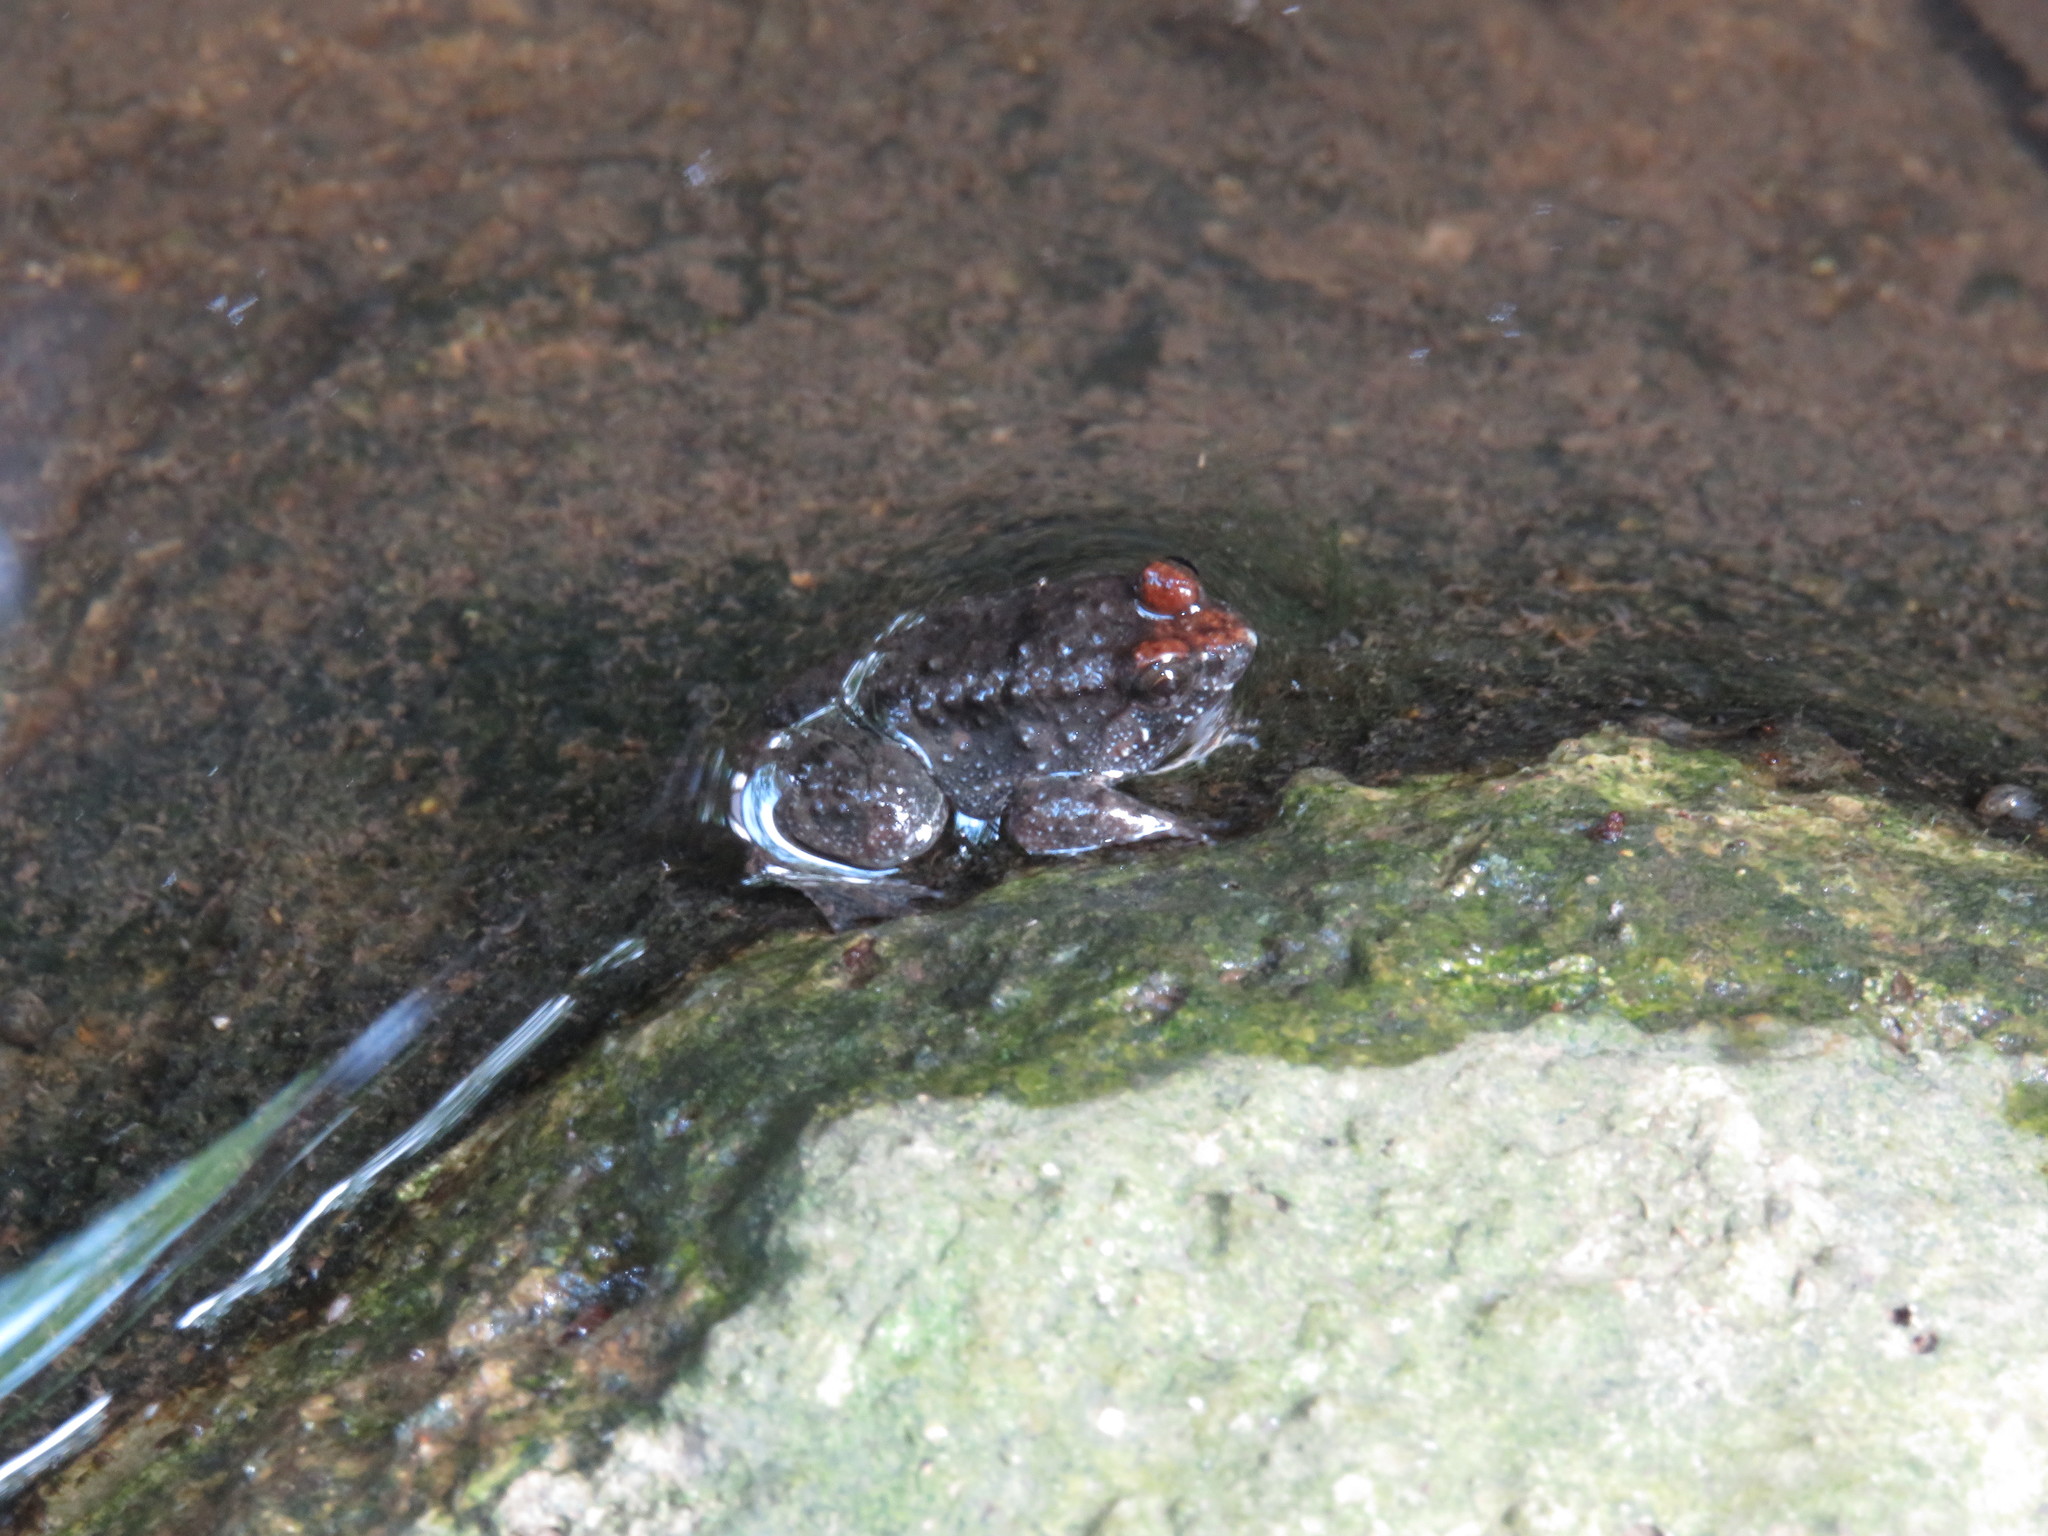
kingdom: Animalia
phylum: Chordata
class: Amphibia
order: Anura
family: Dicroglossidae
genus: Occidozyga
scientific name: Occidozyga martensii
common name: Marten’s oriental frog/round-tongued floating frog
